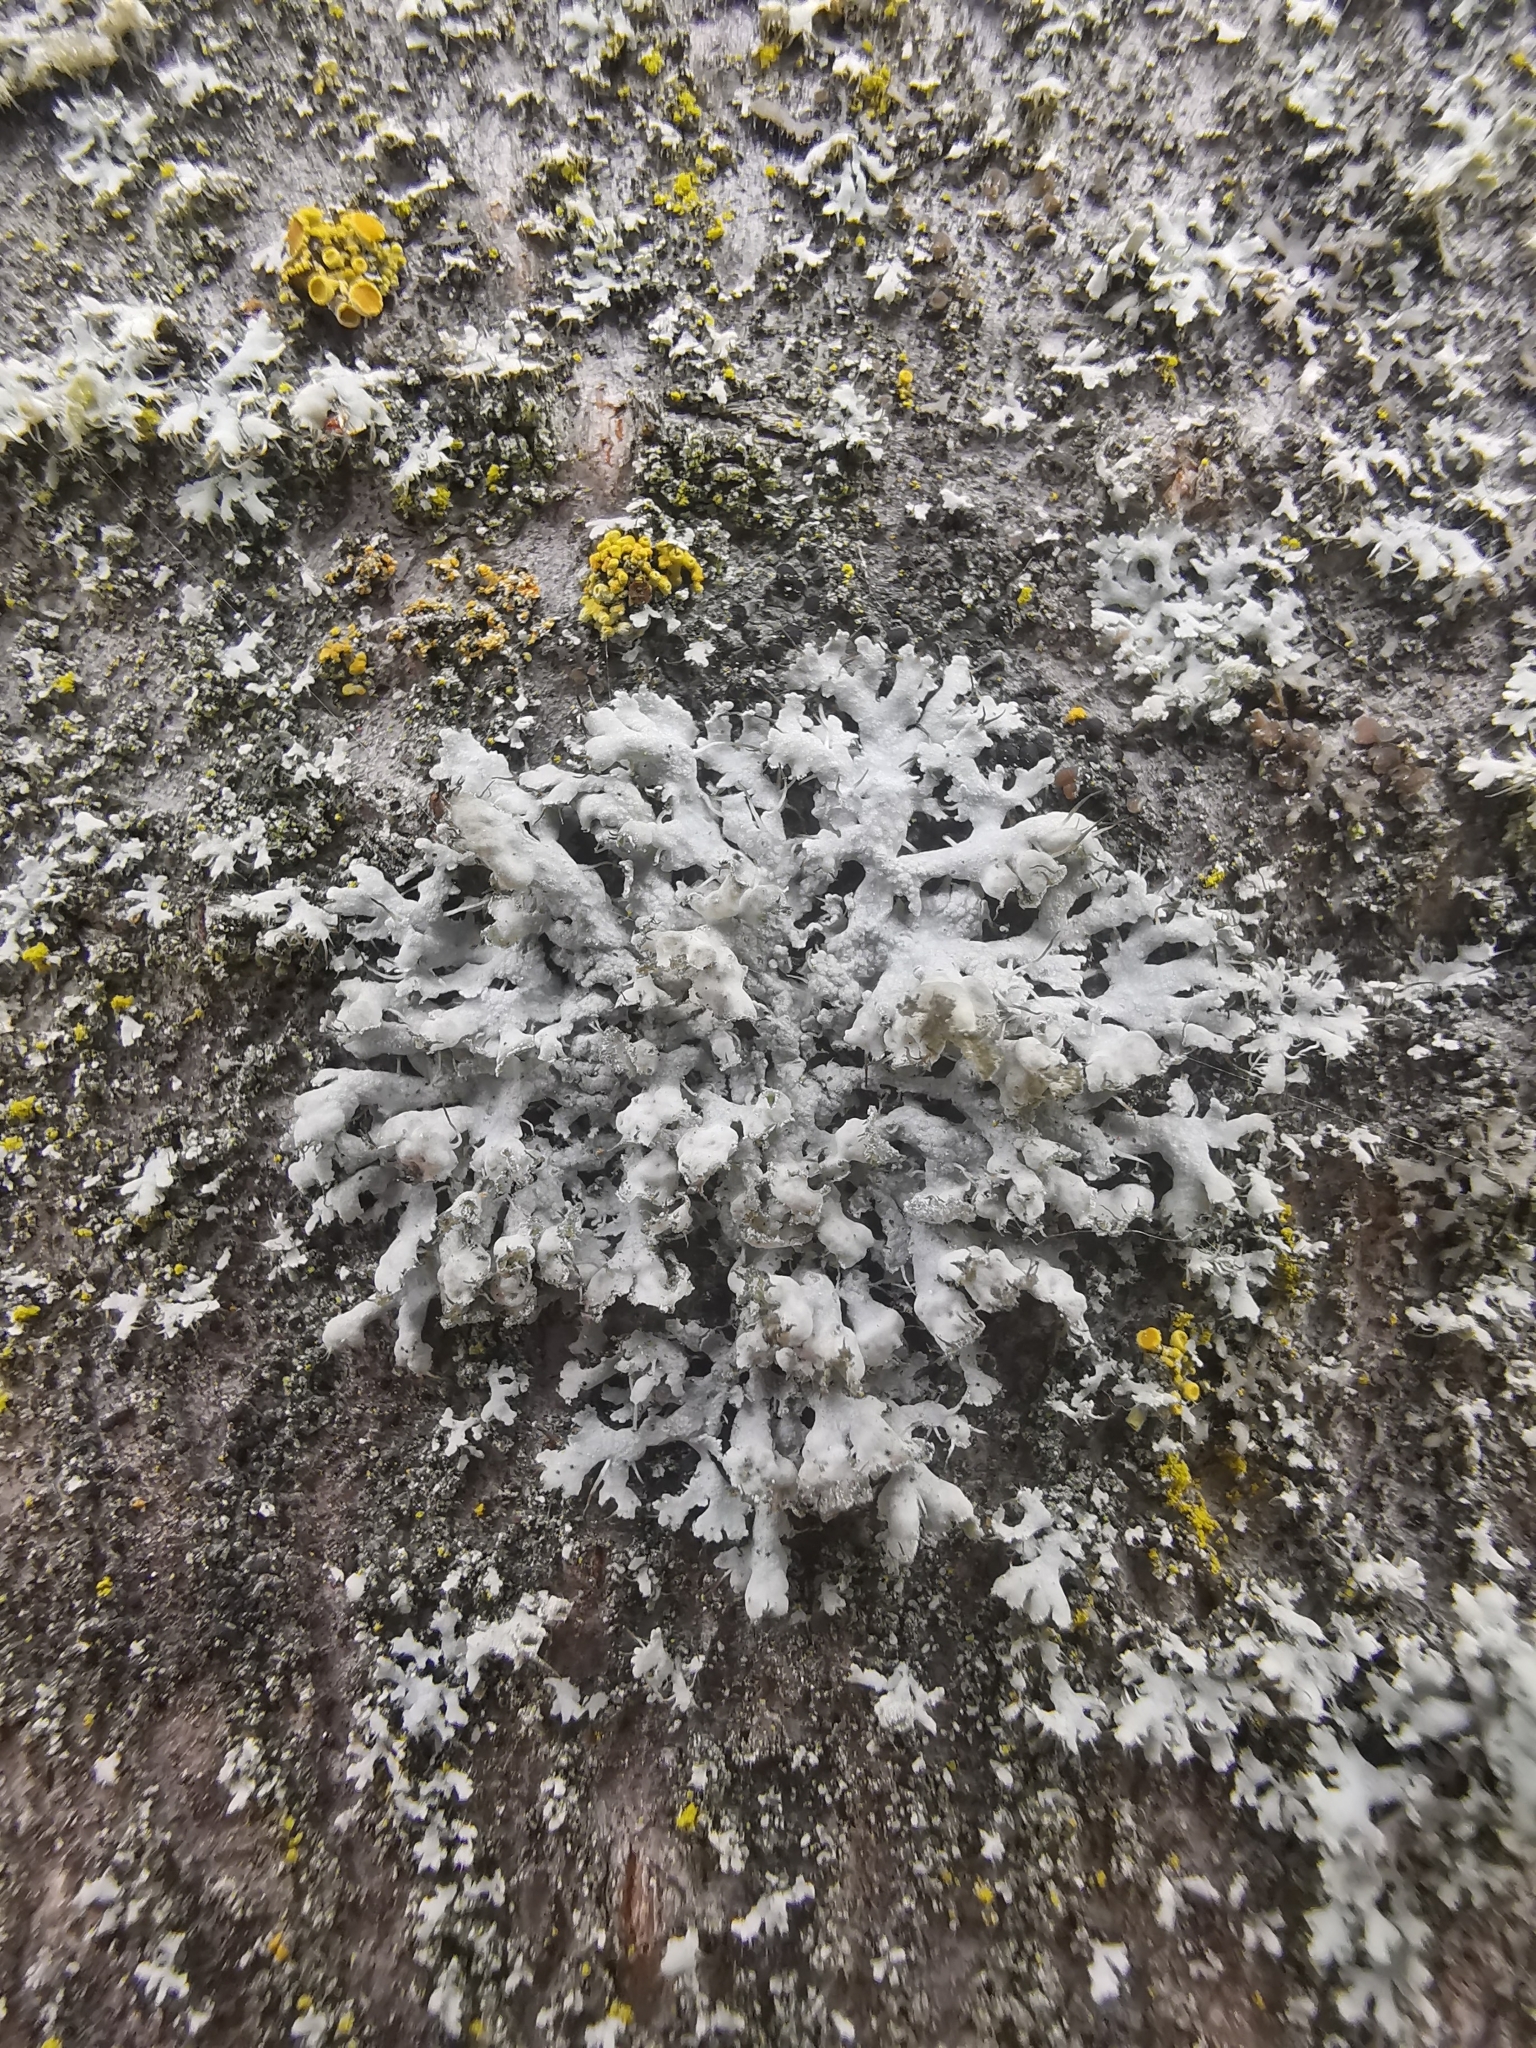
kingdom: Fungi
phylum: Ascomycota
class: Lecanoromycetes
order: Caliciales
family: Physciaceae
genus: Physcia
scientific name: Physcia adscendens
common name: Hooded rosette lichen
